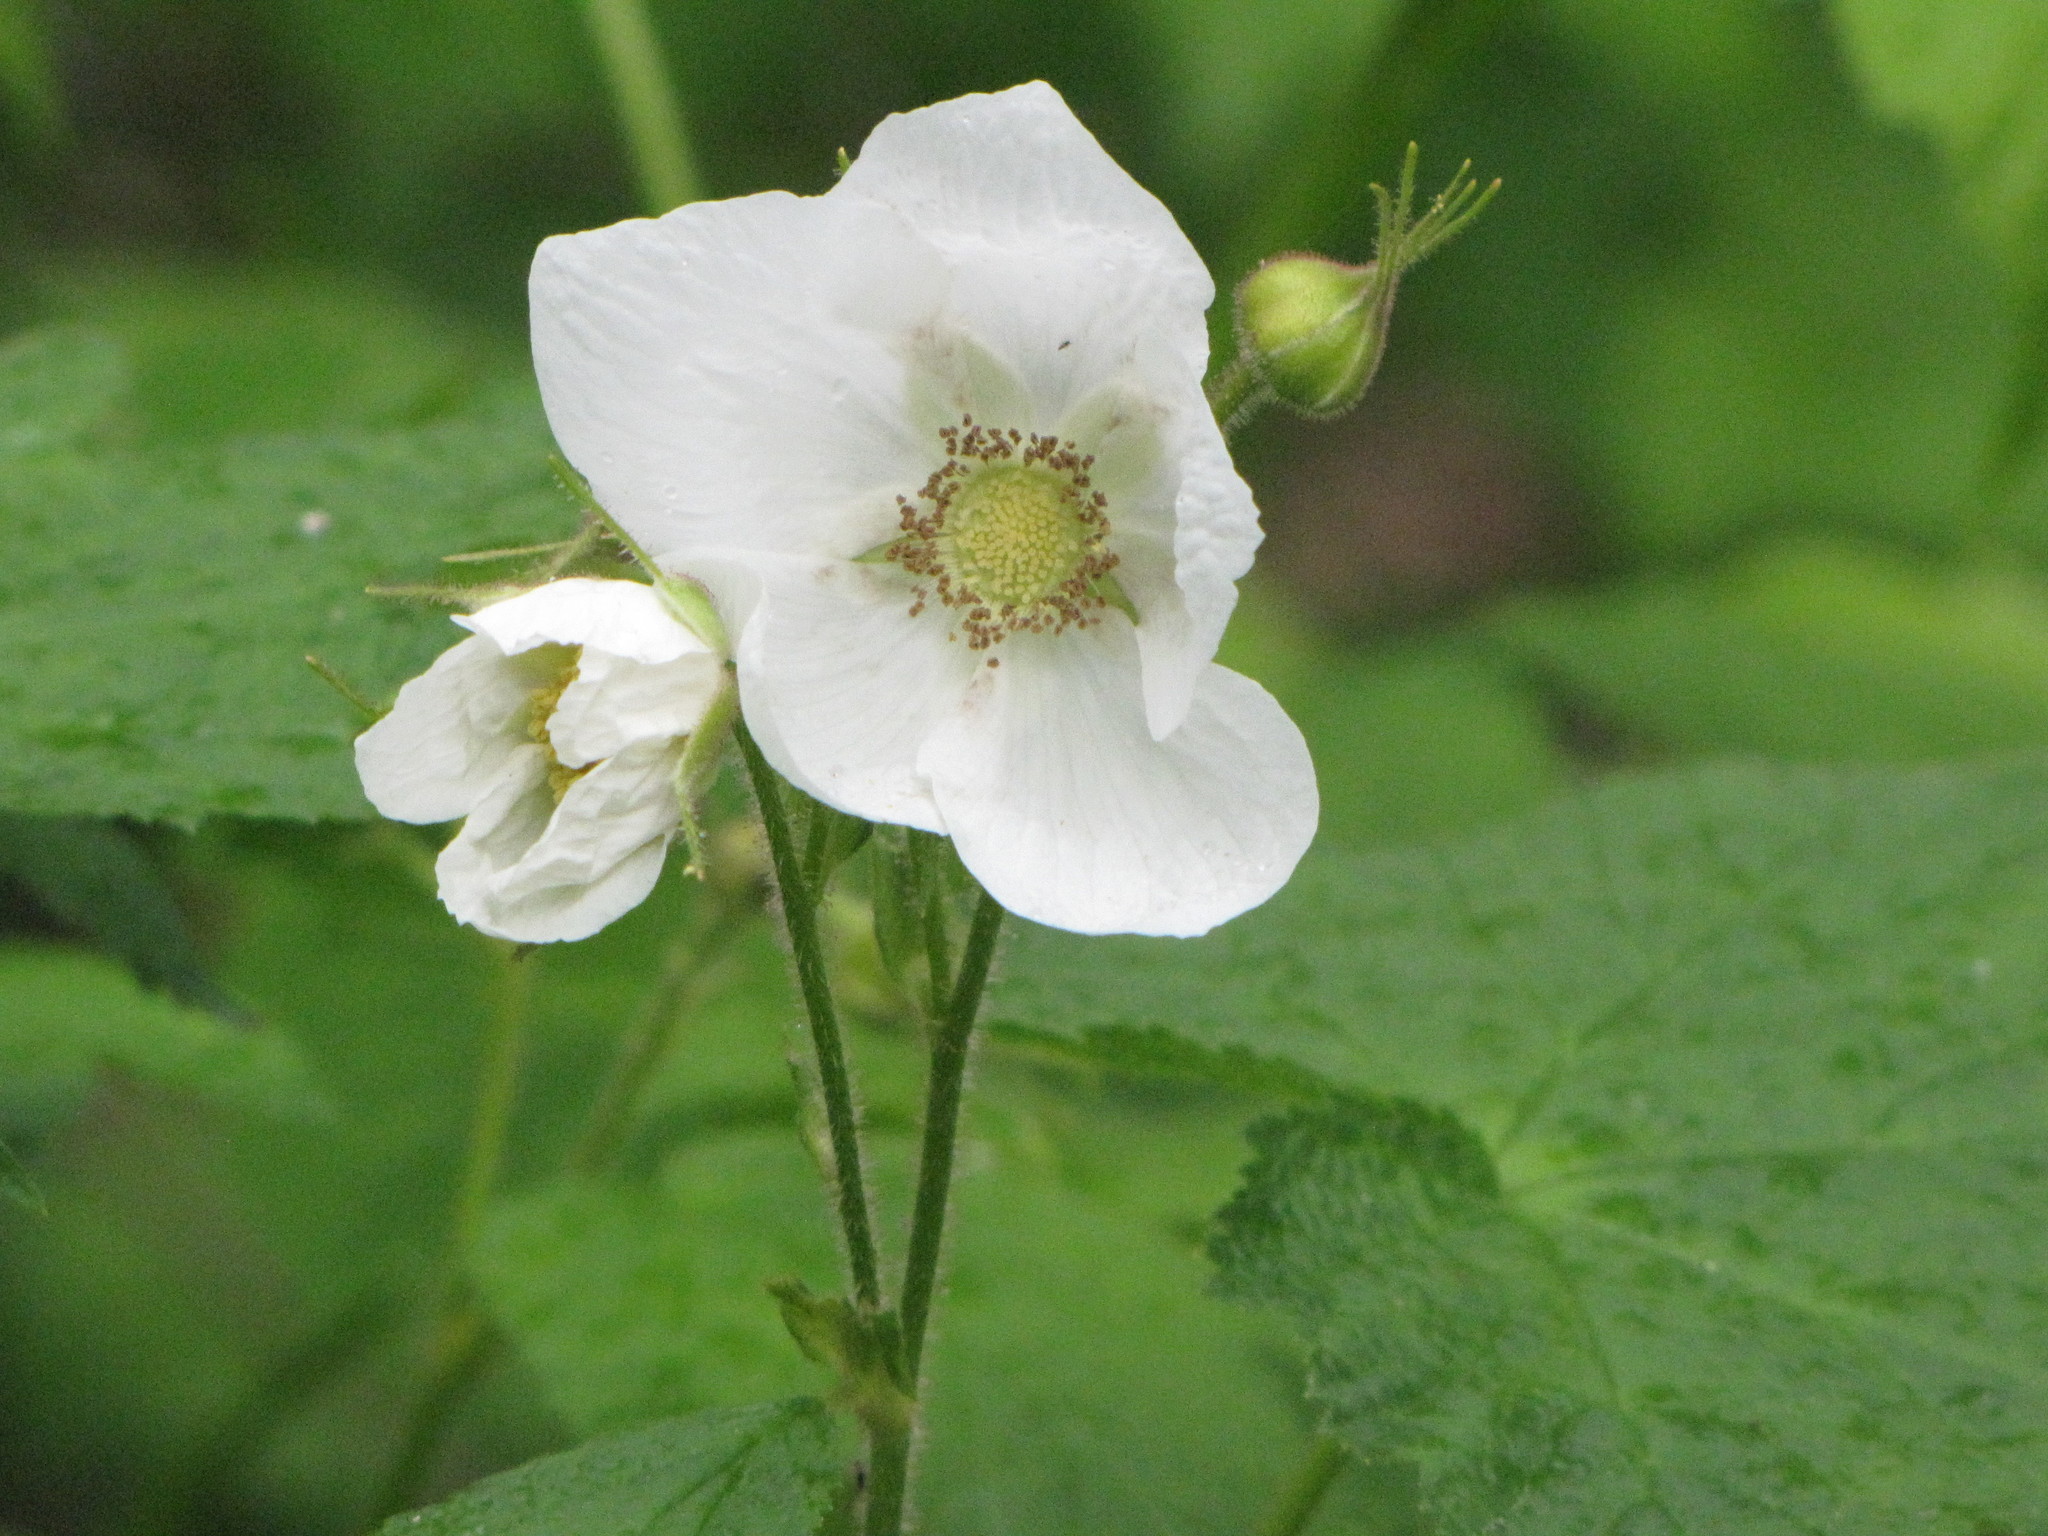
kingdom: Plantae
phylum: Tracheophyta
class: Magnoliopsida
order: Rosales
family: Rosaceae
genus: Rubus
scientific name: Rubus parviflorus
